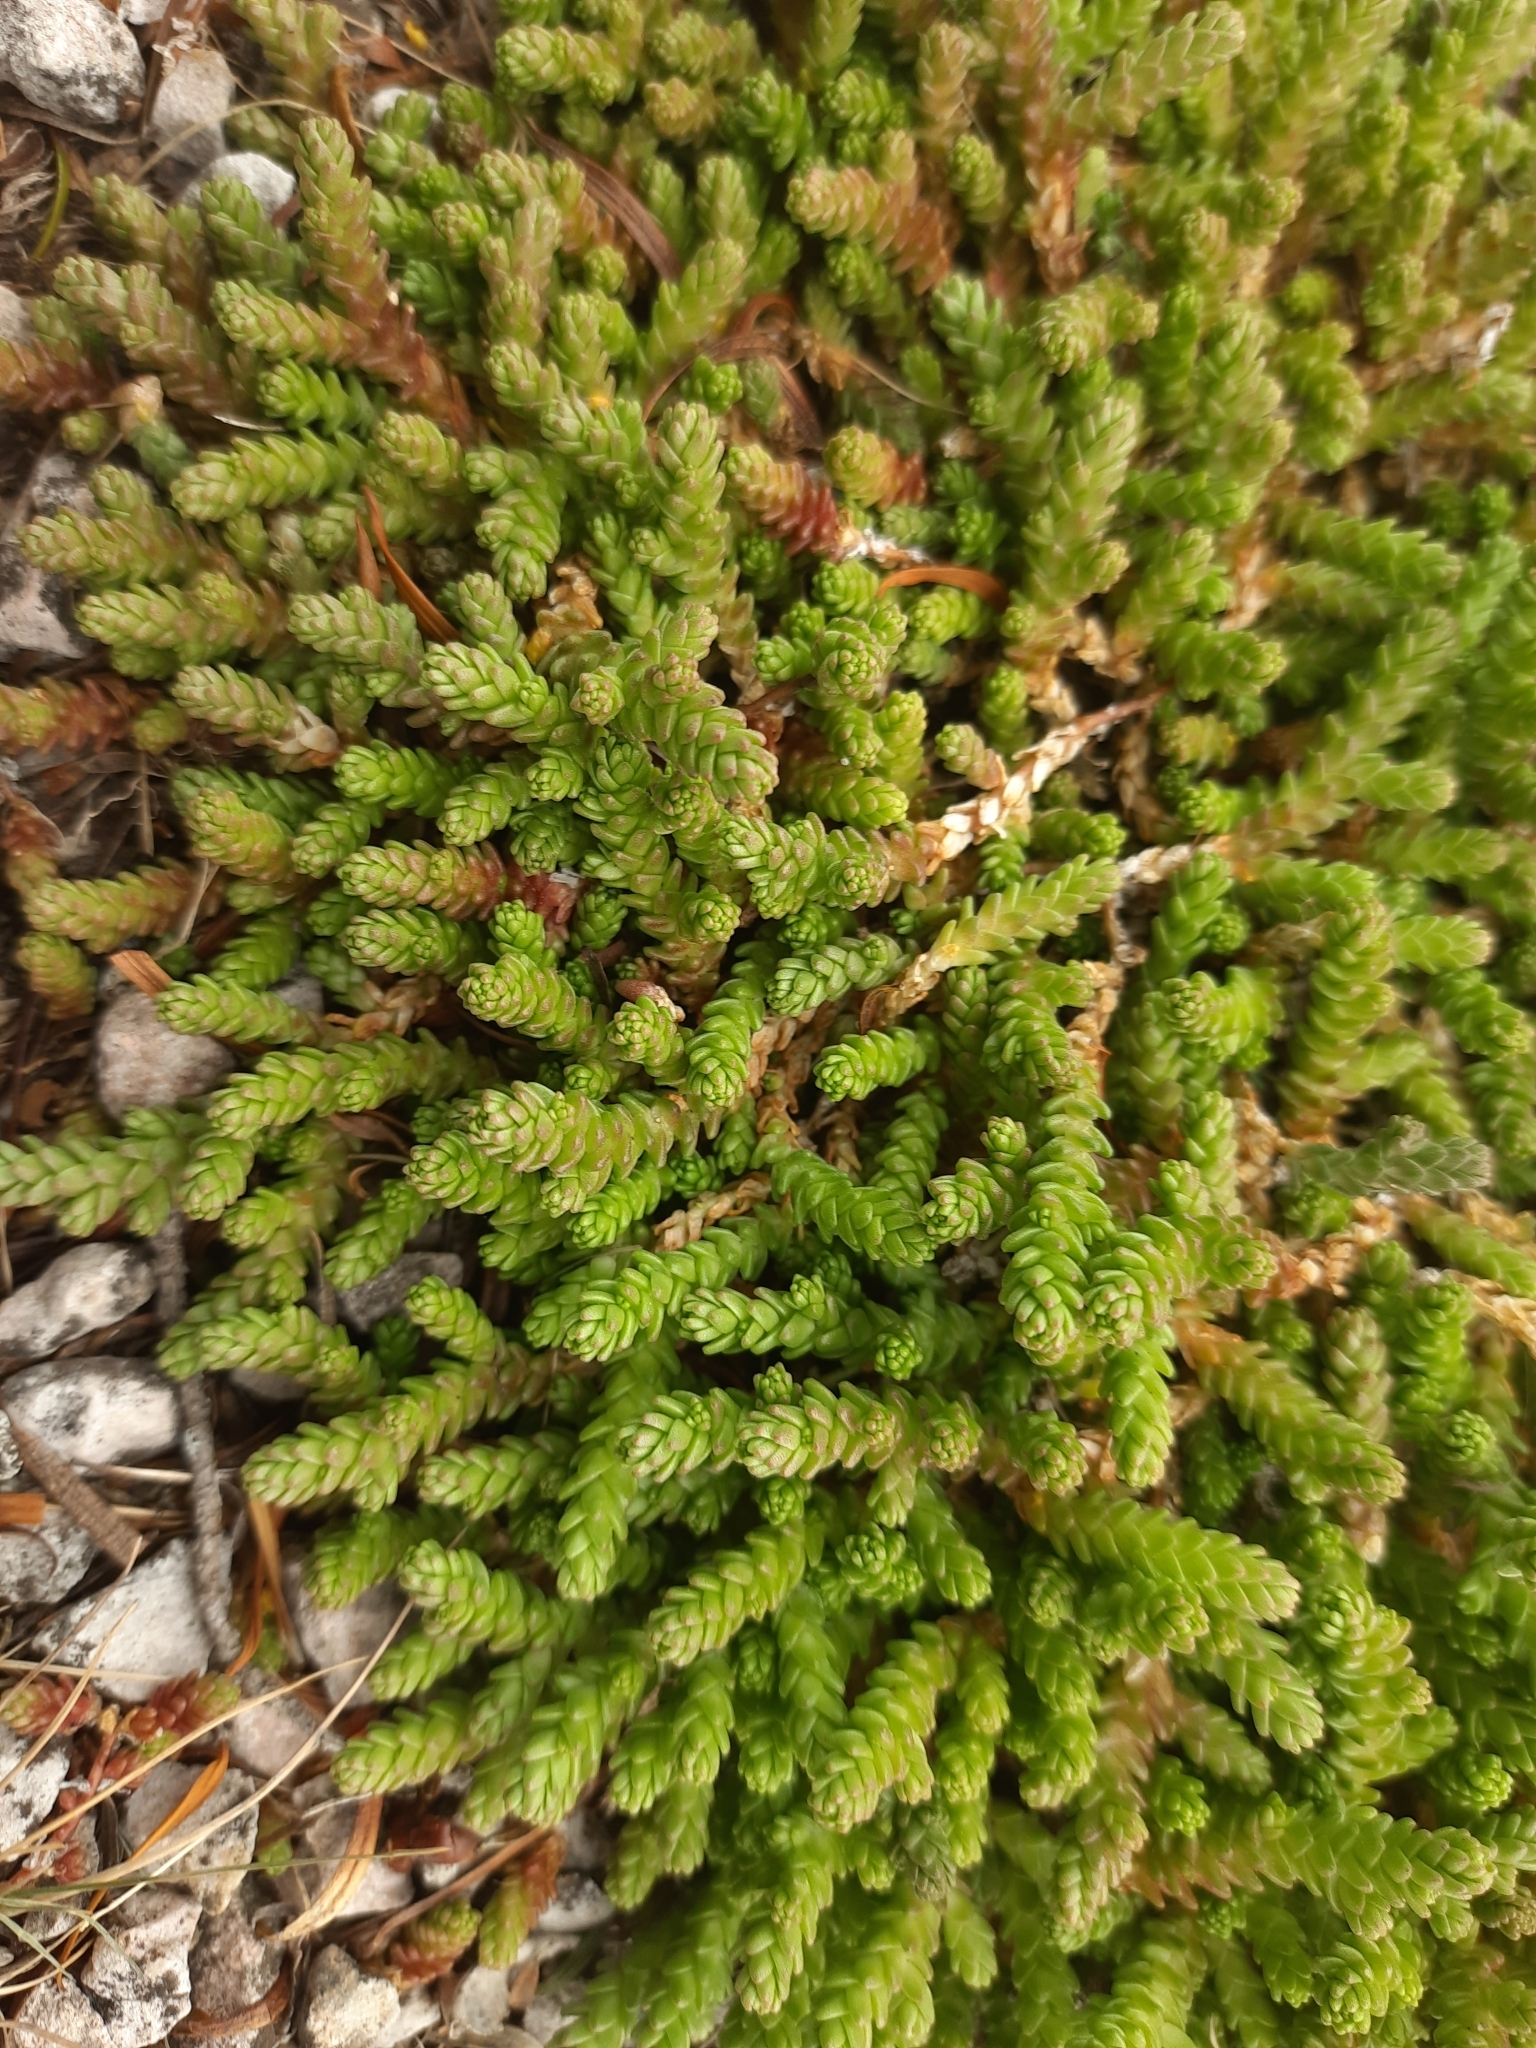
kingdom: Plantae
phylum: Tracheophyta
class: Magnoliopsida
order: Saxifragales
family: Crassulaceae
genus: Sedum
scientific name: Sedum acre
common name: Biting stonecrop
